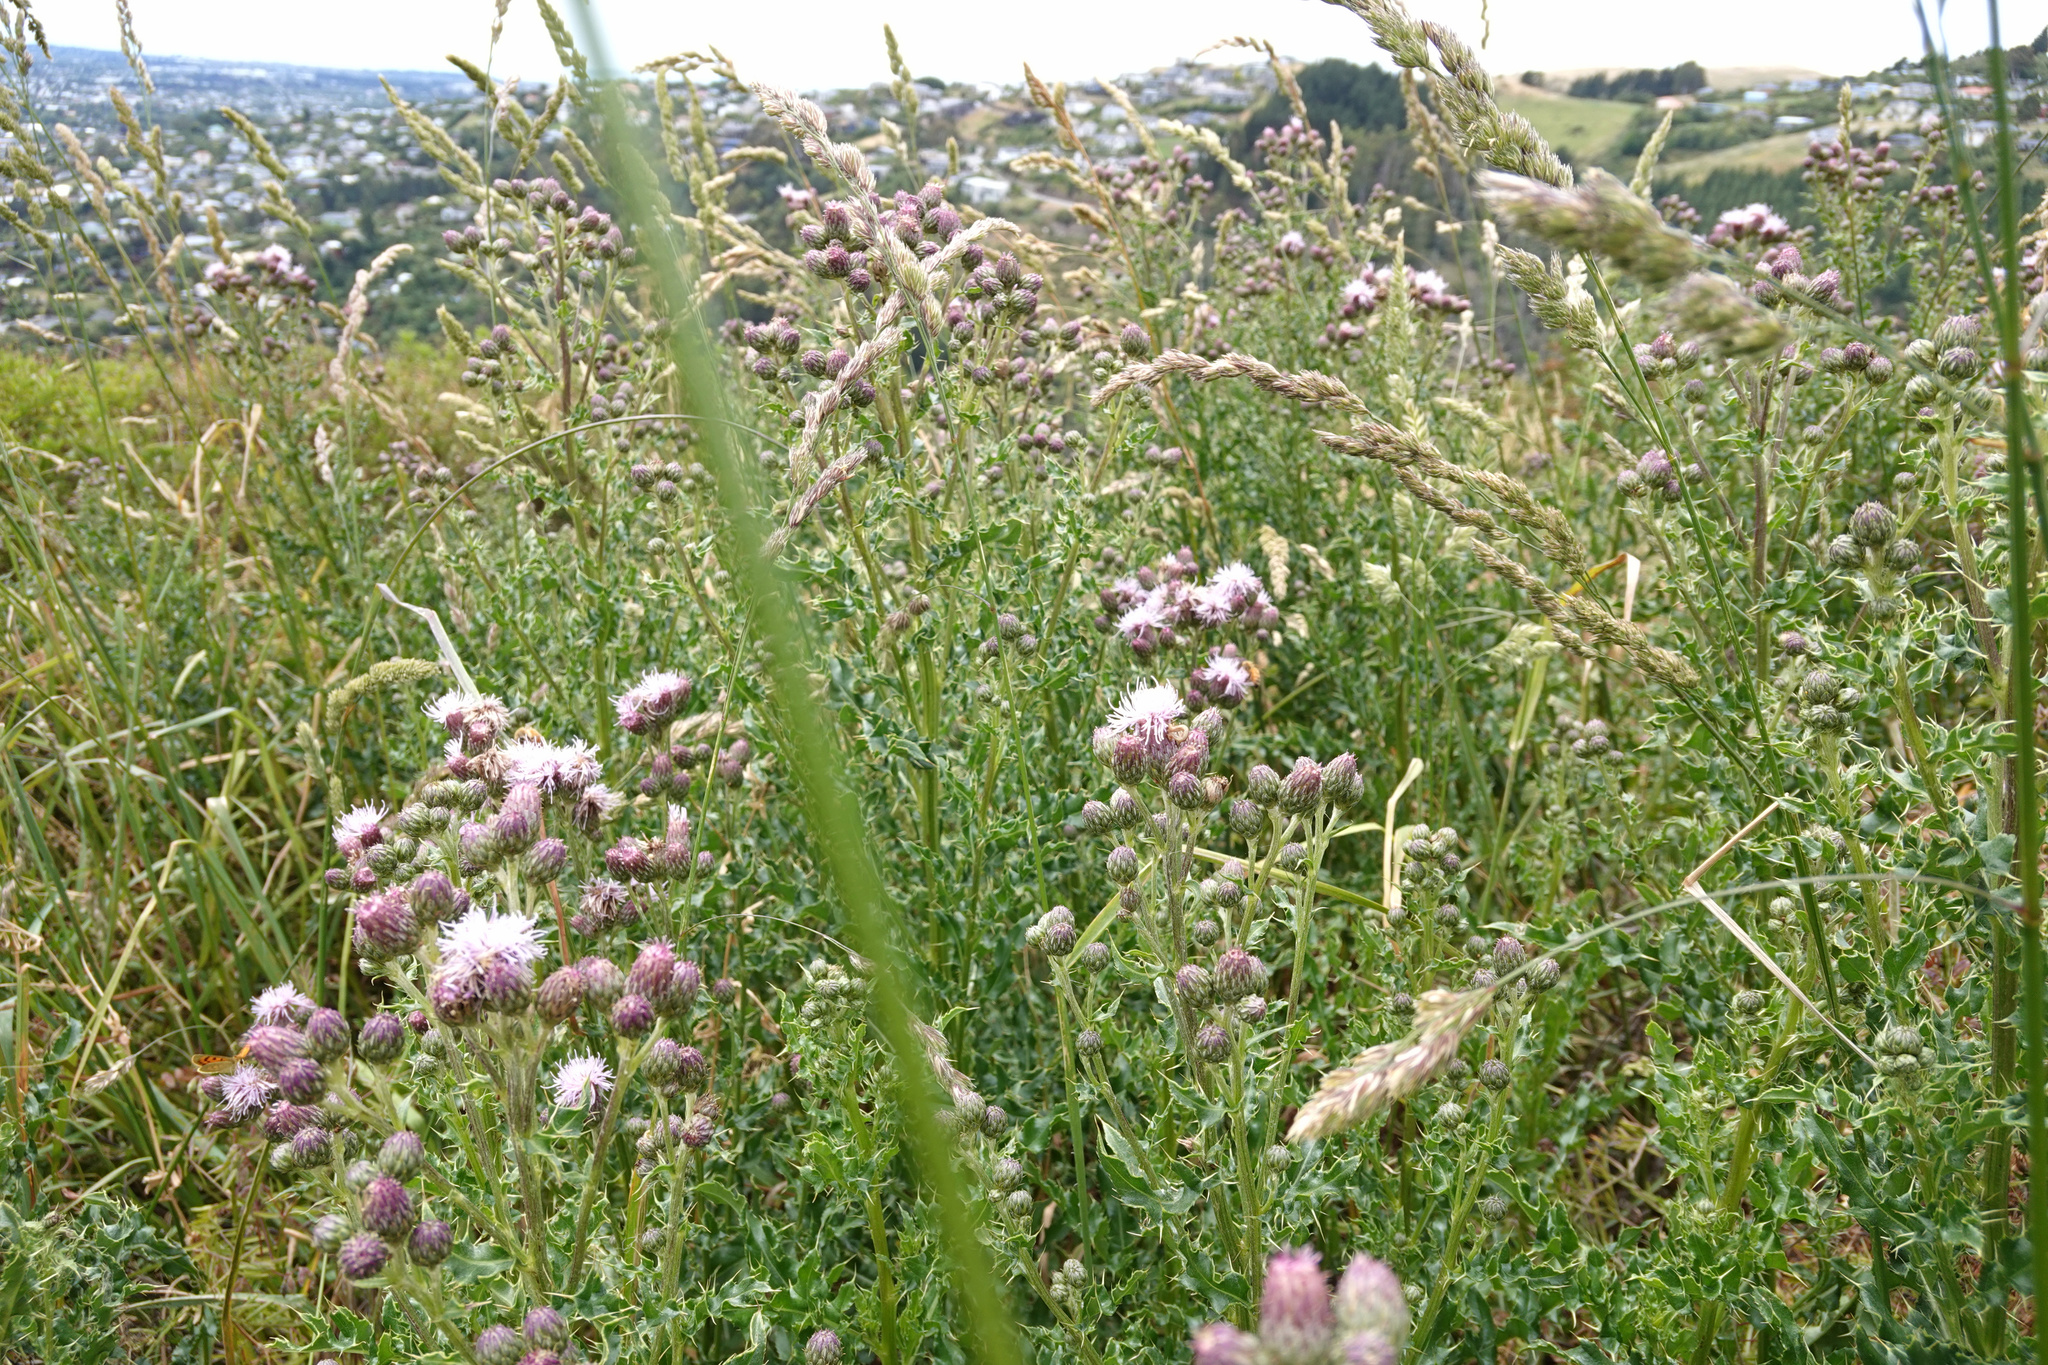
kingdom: Plantae
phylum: Tracheophyta
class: Magnoliopsida
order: Asterales
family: Asteraceae
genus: Cirsium
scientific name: Cirsium arvense
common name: Creeping thistle
